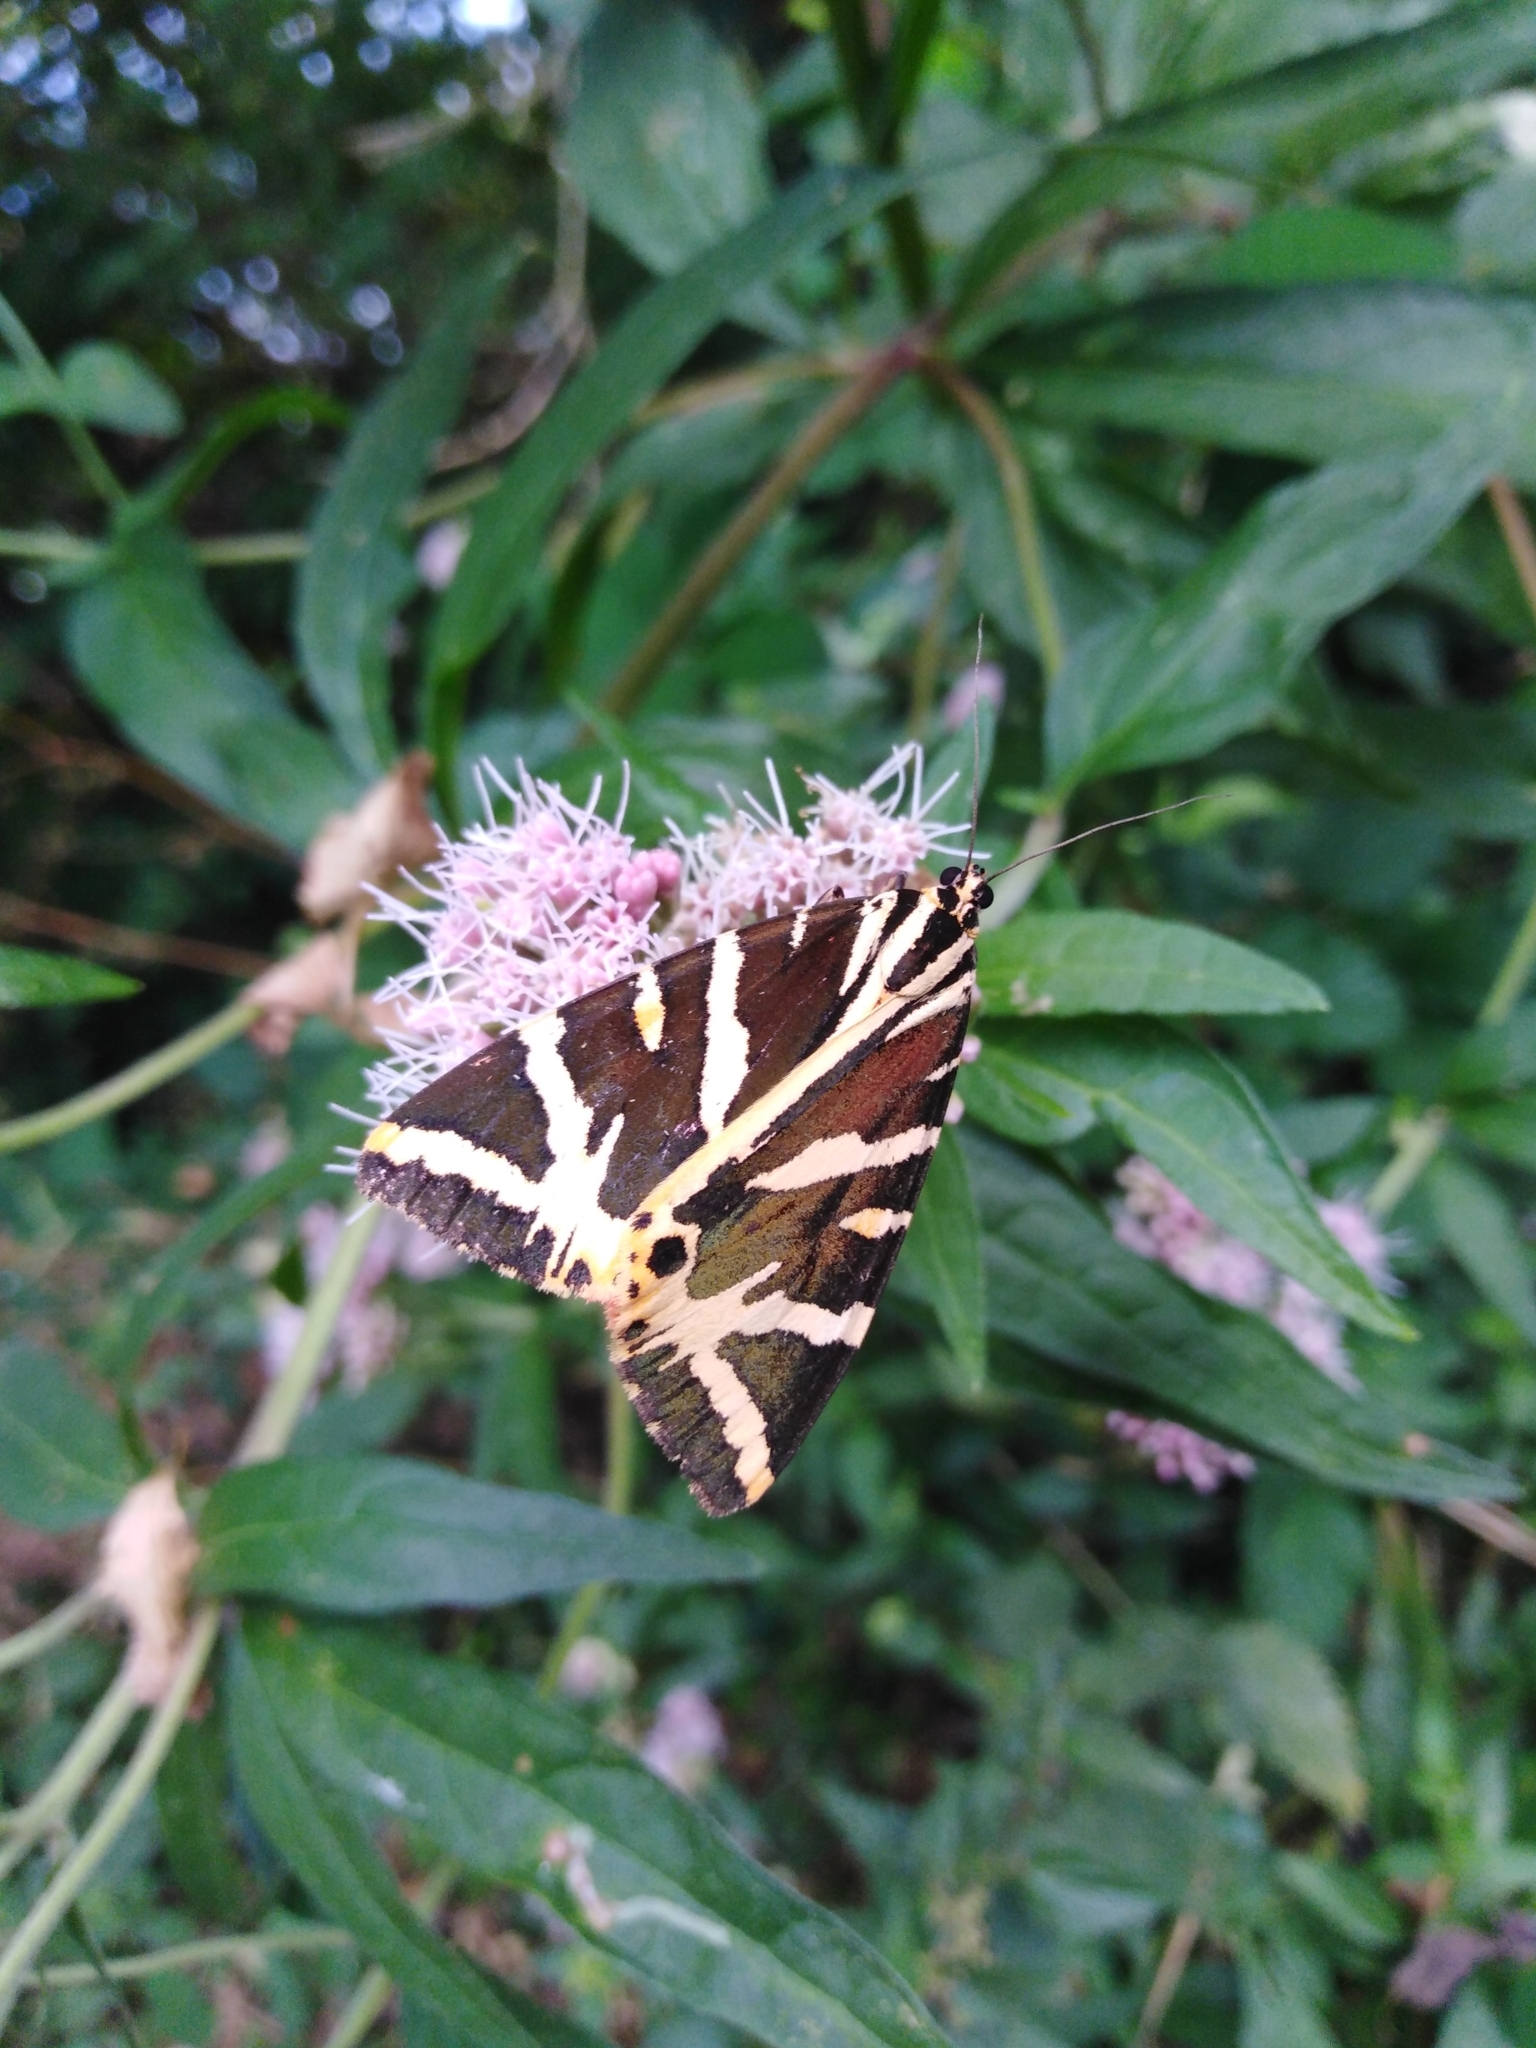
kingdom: Animalia
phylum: Arthropoda
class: Insecta
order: Lepidoptera
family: Erebidae
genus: Euplagia
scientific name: Euplagia quadripunctaria
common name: Jersey tiger
